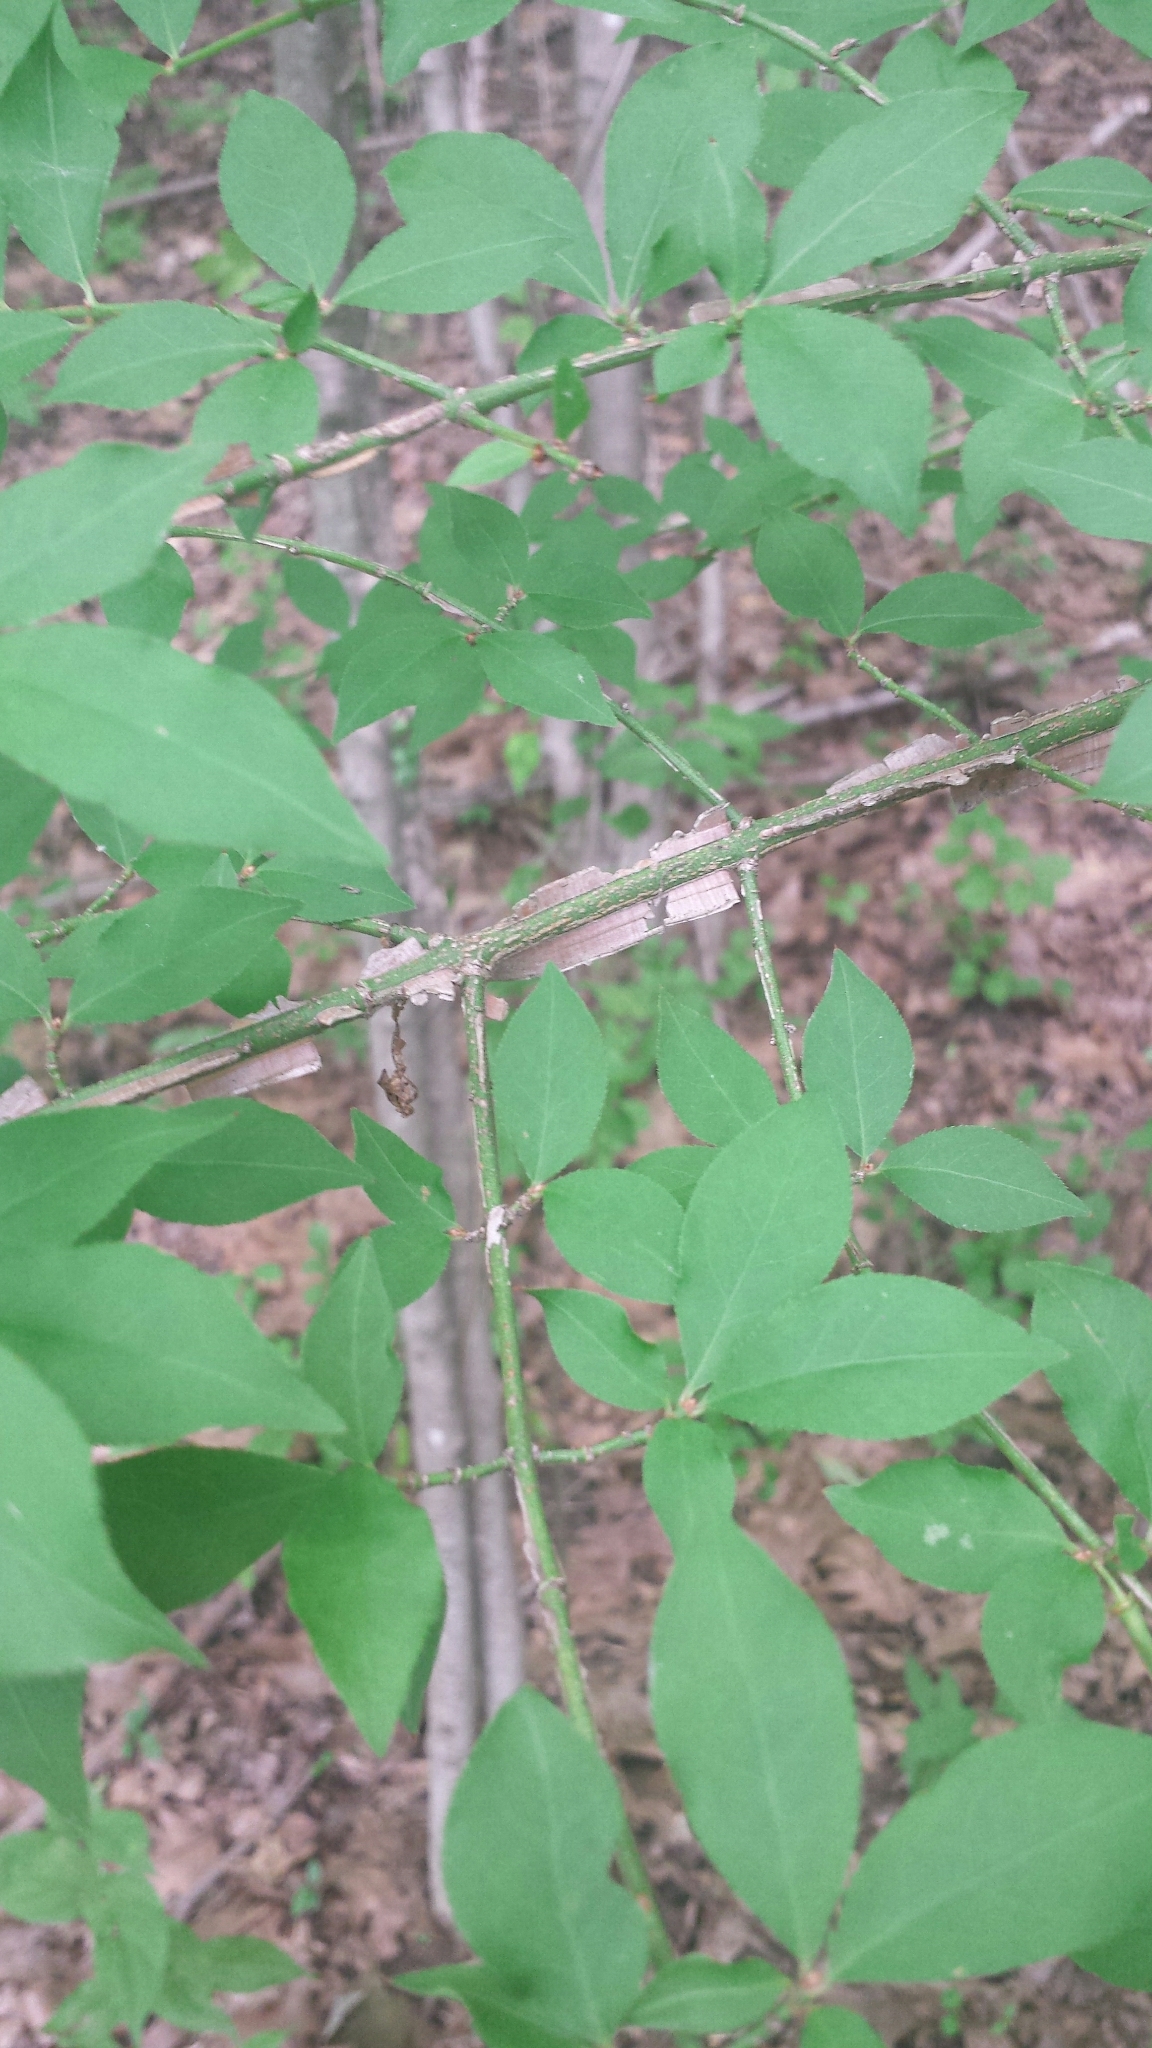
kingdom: Plantae
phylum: Tracheophyta
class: Magnoliopsida
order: Celastrales
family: Celastraceae
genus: Euonymus
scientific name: Euonymus alatus
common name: Winged euonymus
